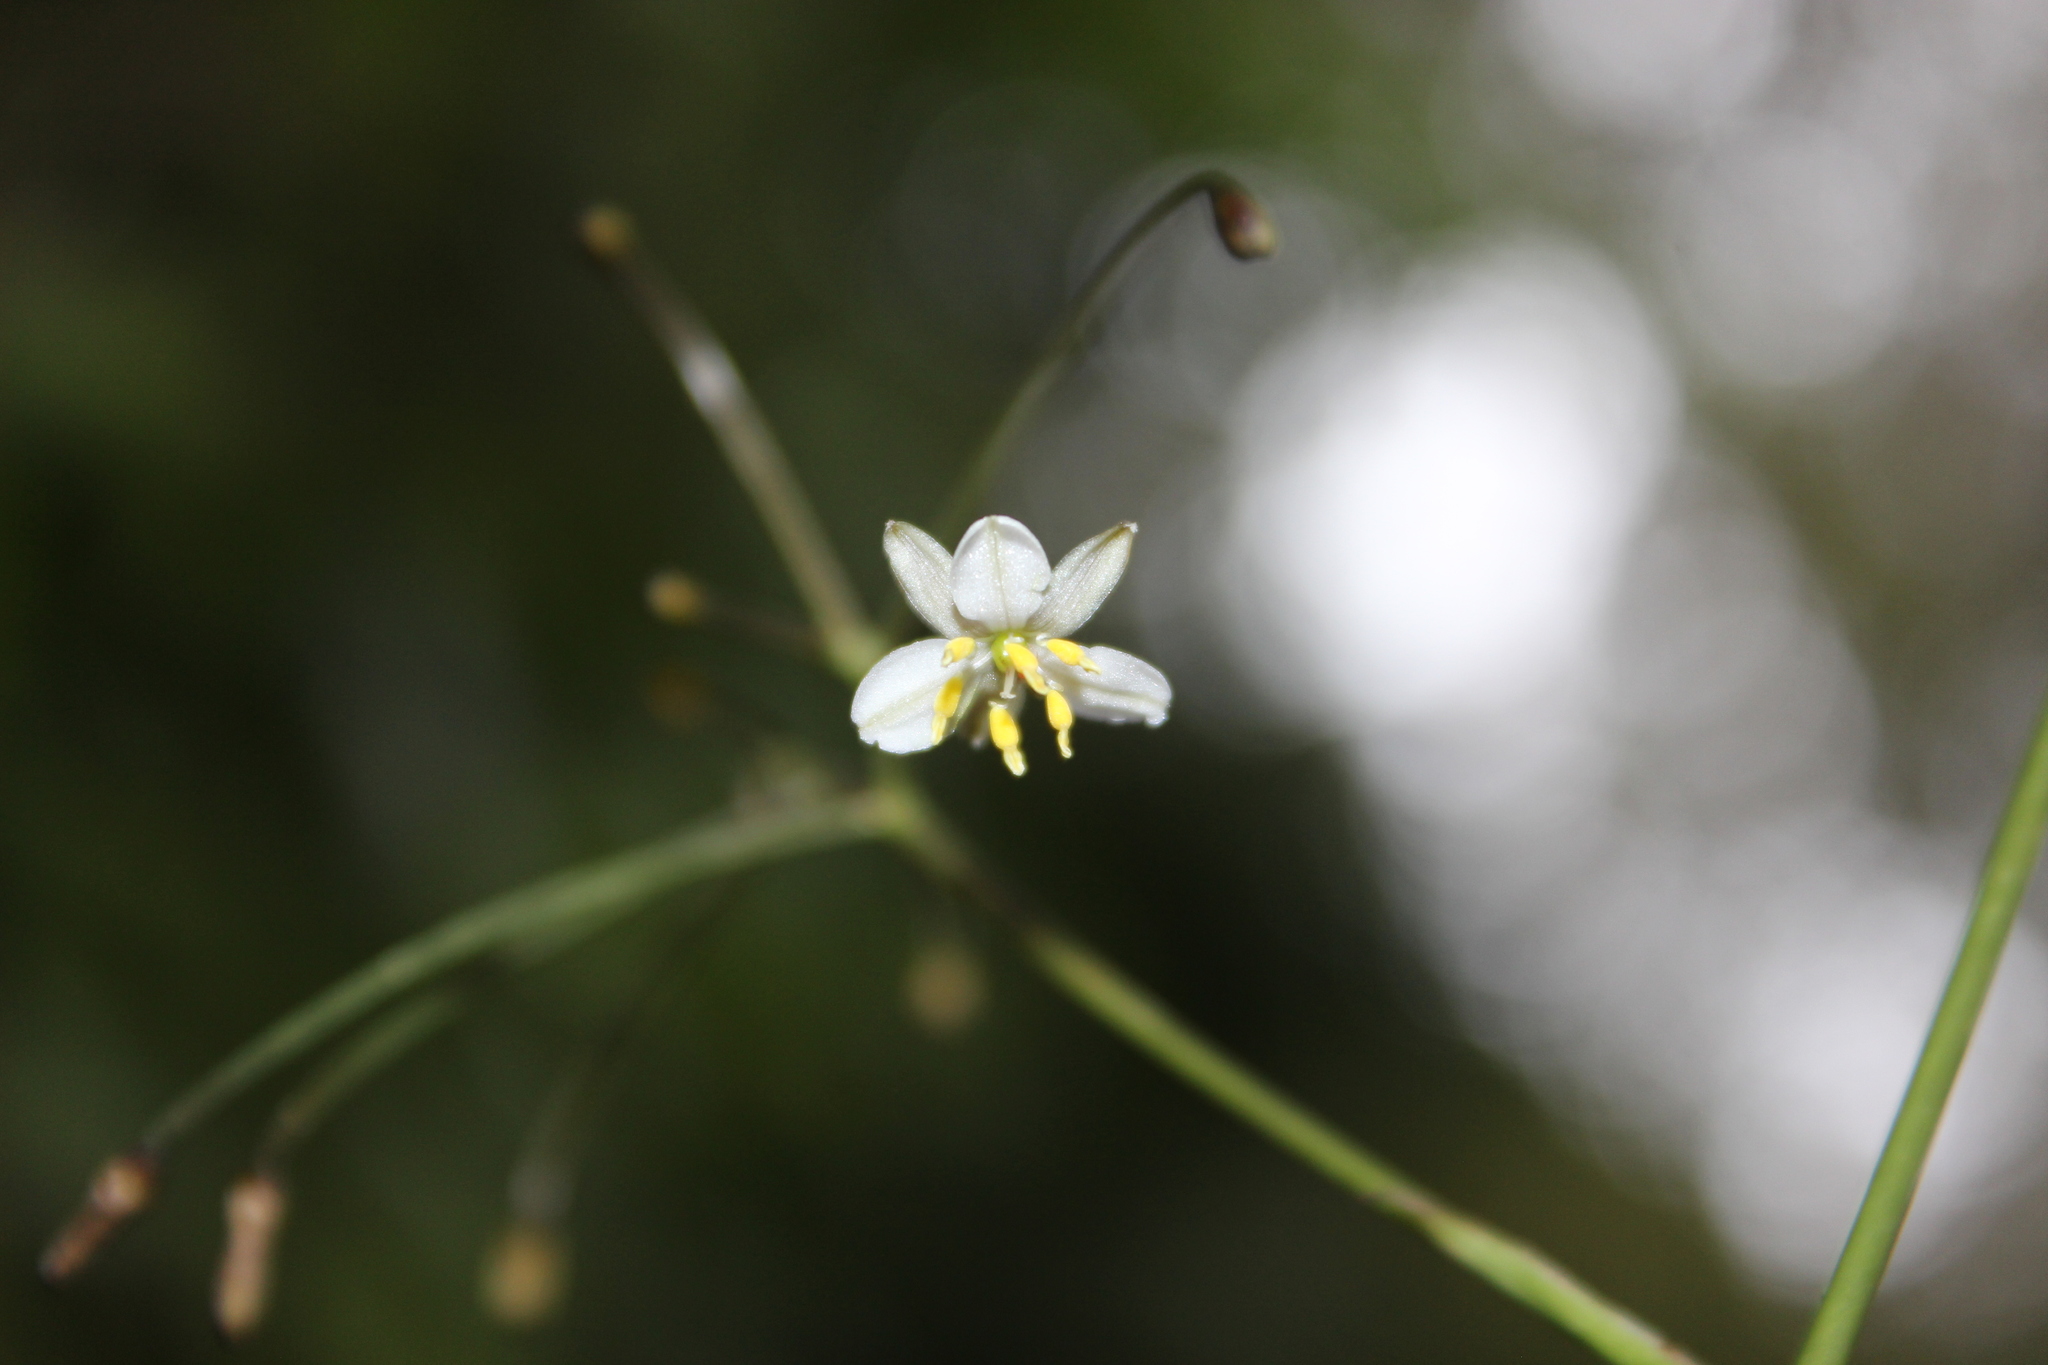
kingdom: Plantae
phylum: Tracheophyta
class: Liliopsida
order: Asparagales
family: Asphodelaceae
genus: Dianella
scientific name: Dianella nigra
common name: New zealand-blueberry
